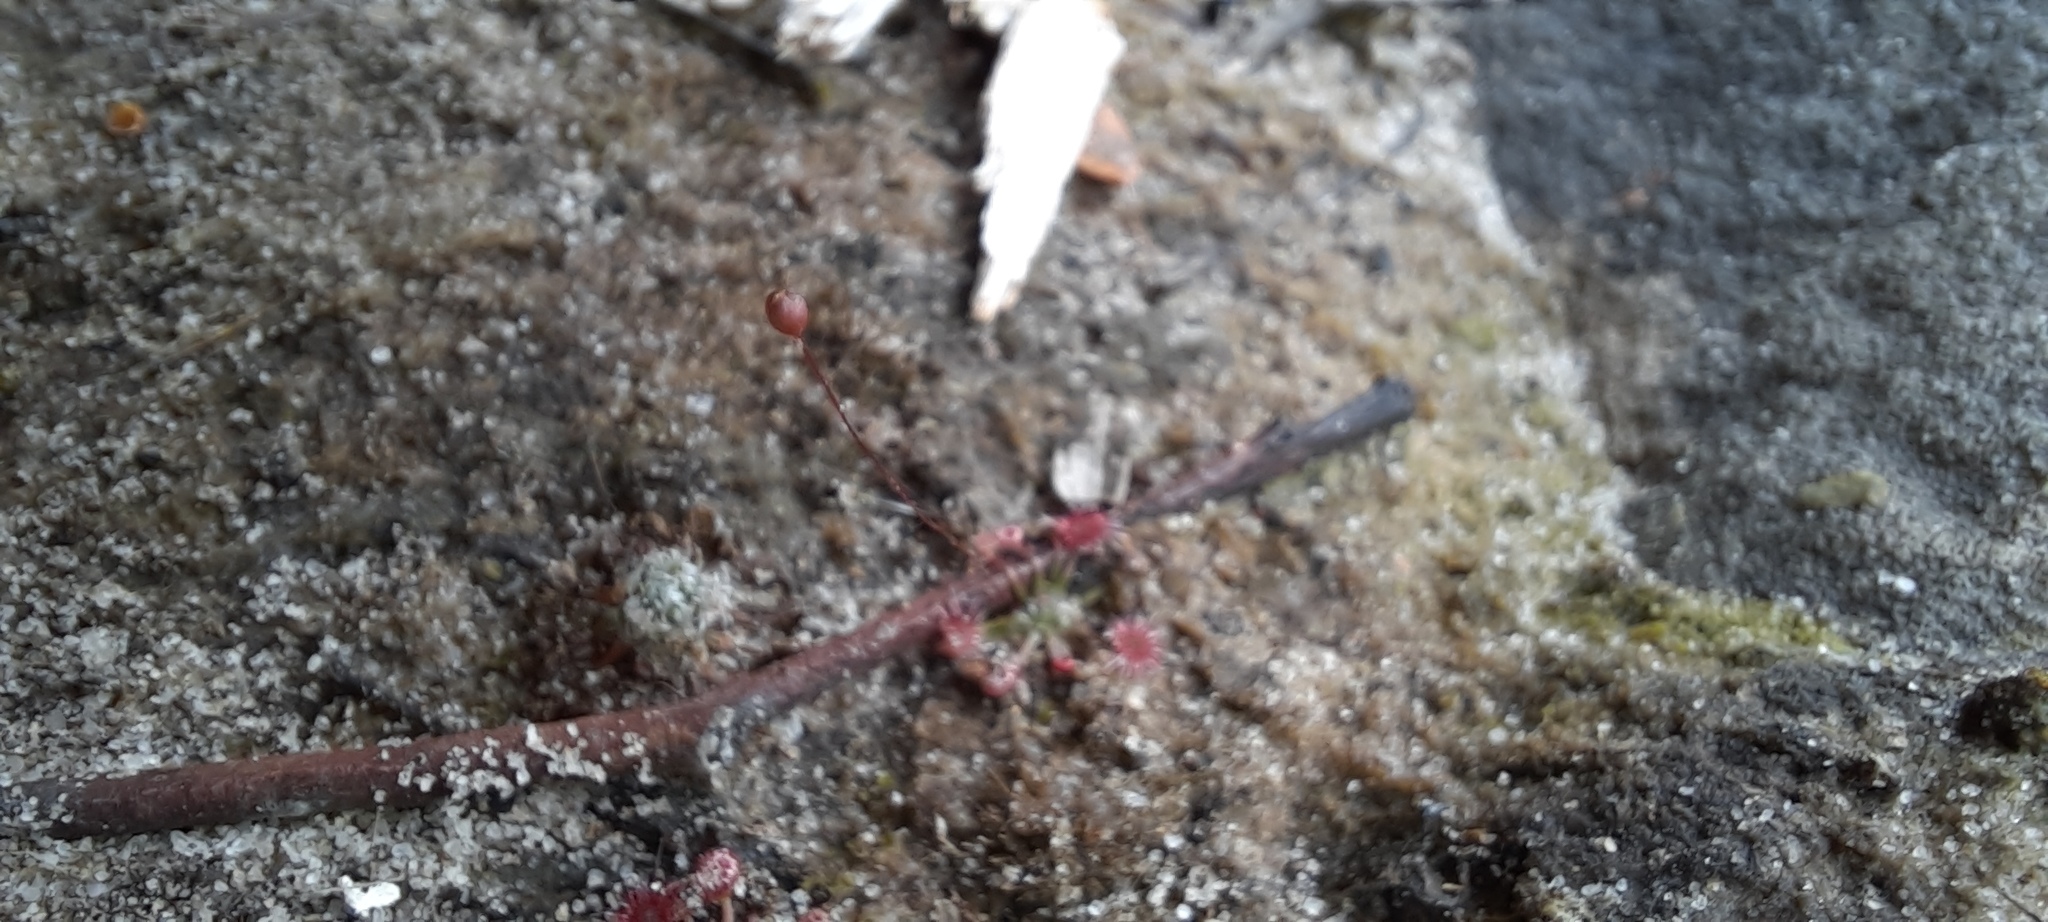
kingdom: Plantae
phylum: Tracheophyta
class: Magnoliopsida
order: Caryophyllales
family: Droseraceae
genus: Drosera
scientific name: Drosera pygmaea
